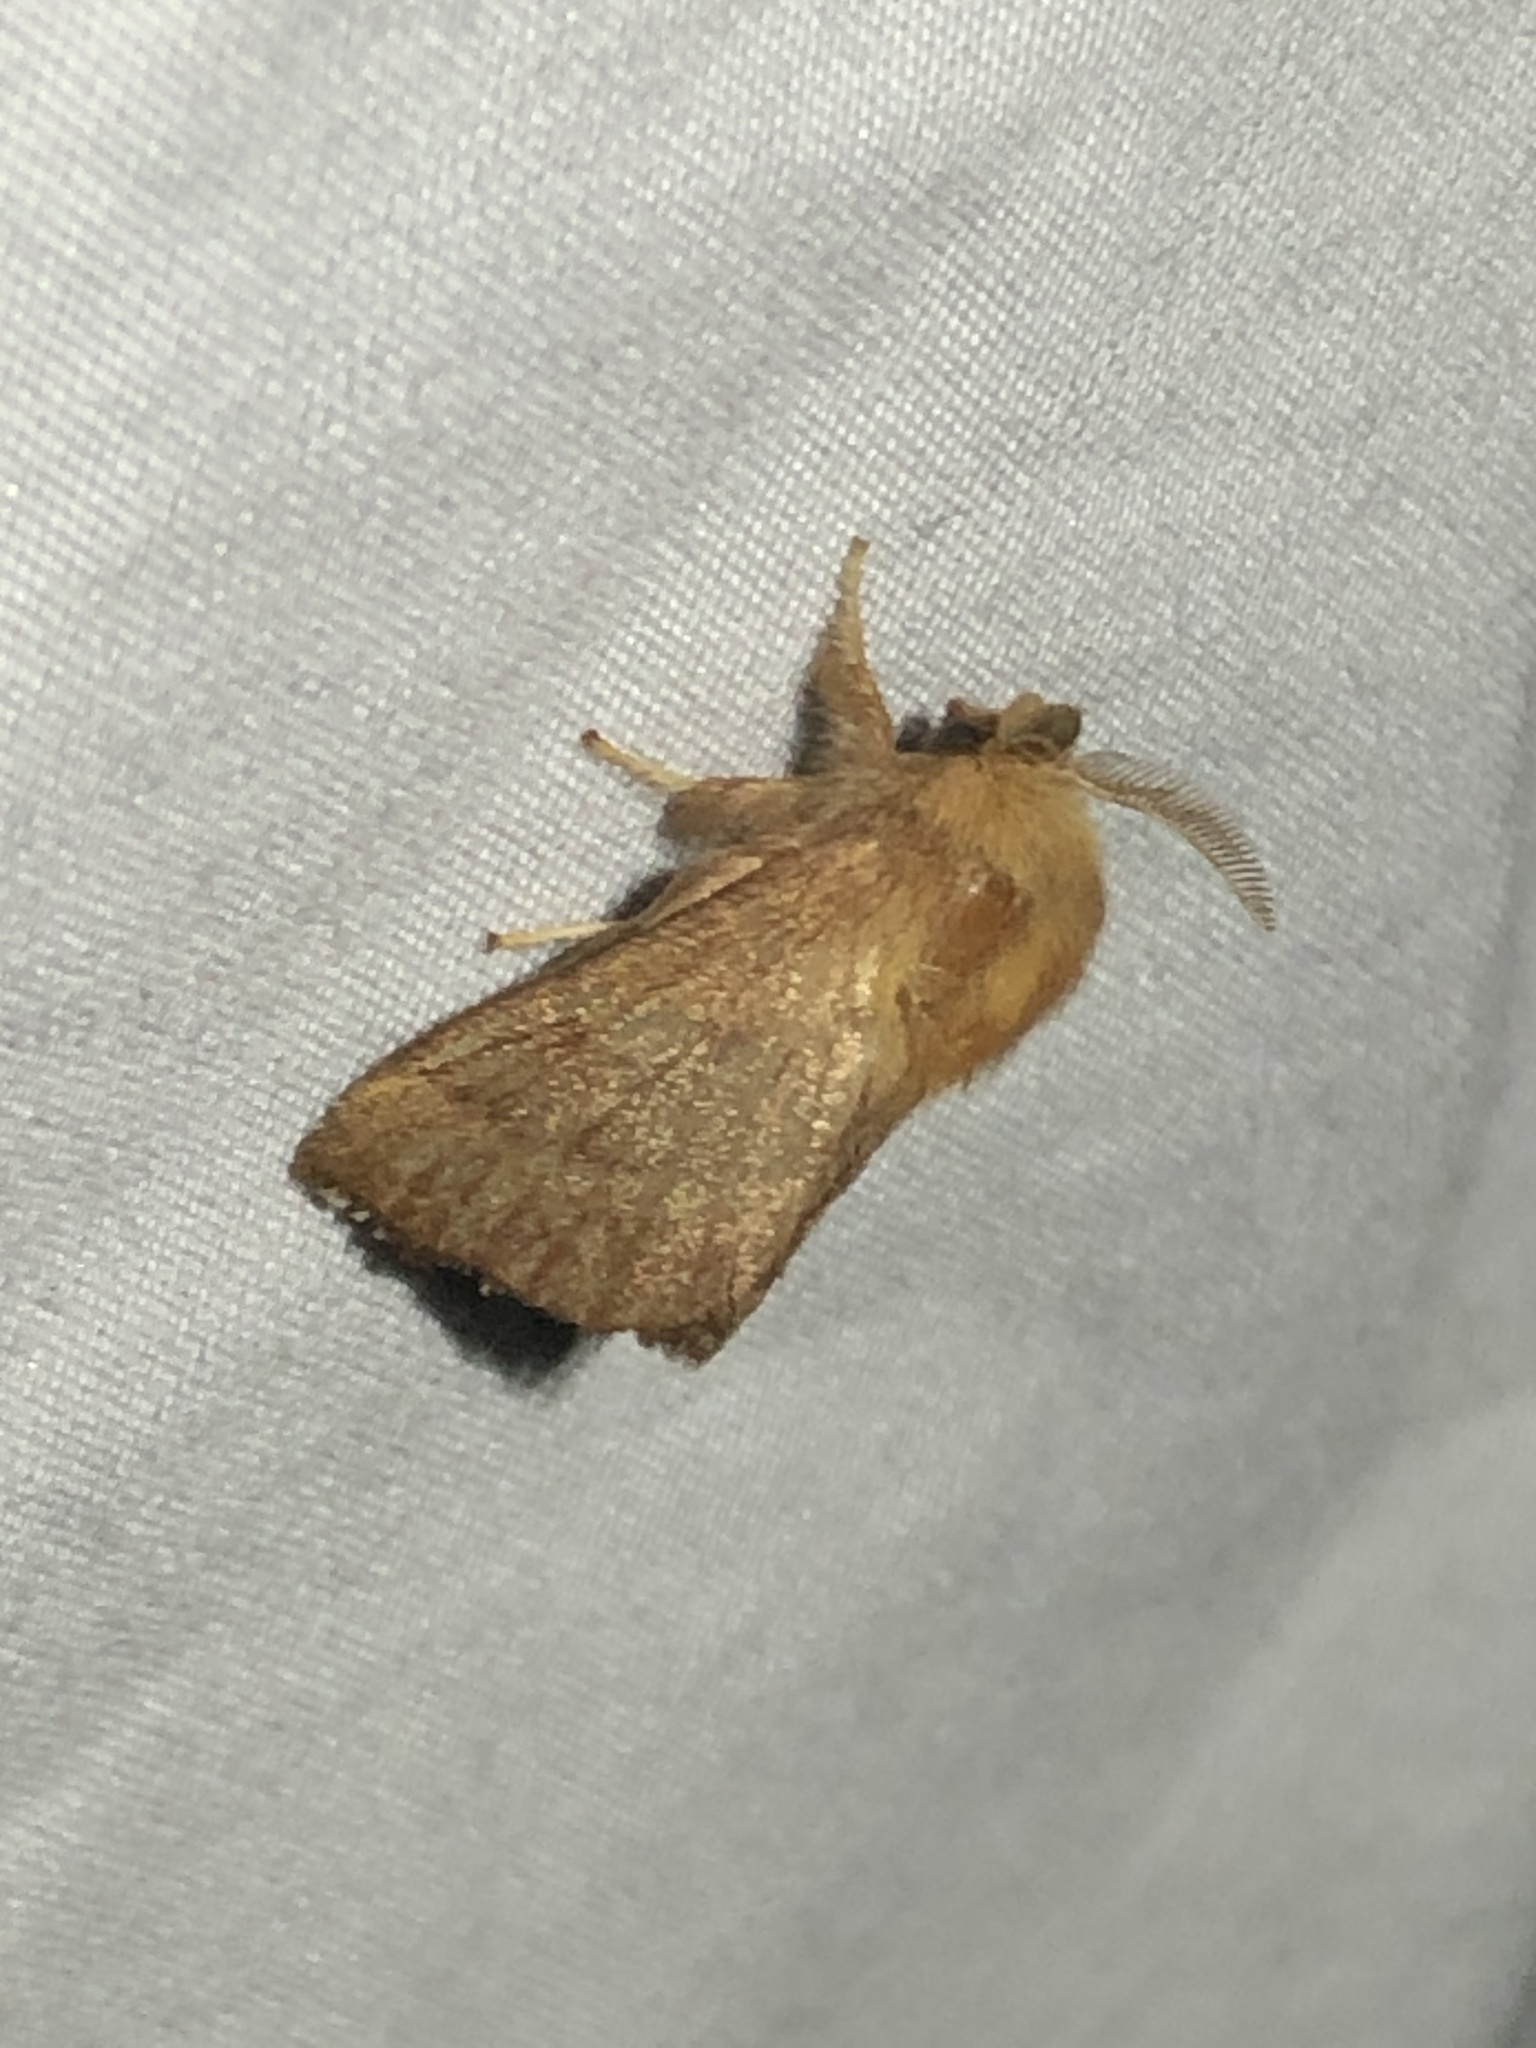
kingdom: Animalia
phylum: Arthropoda
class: Insecta
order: Lepidoptera
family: Lasiocampidae
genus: Malacosoma
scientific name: Malacosoma disstria
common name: Forest tent caterpillar
